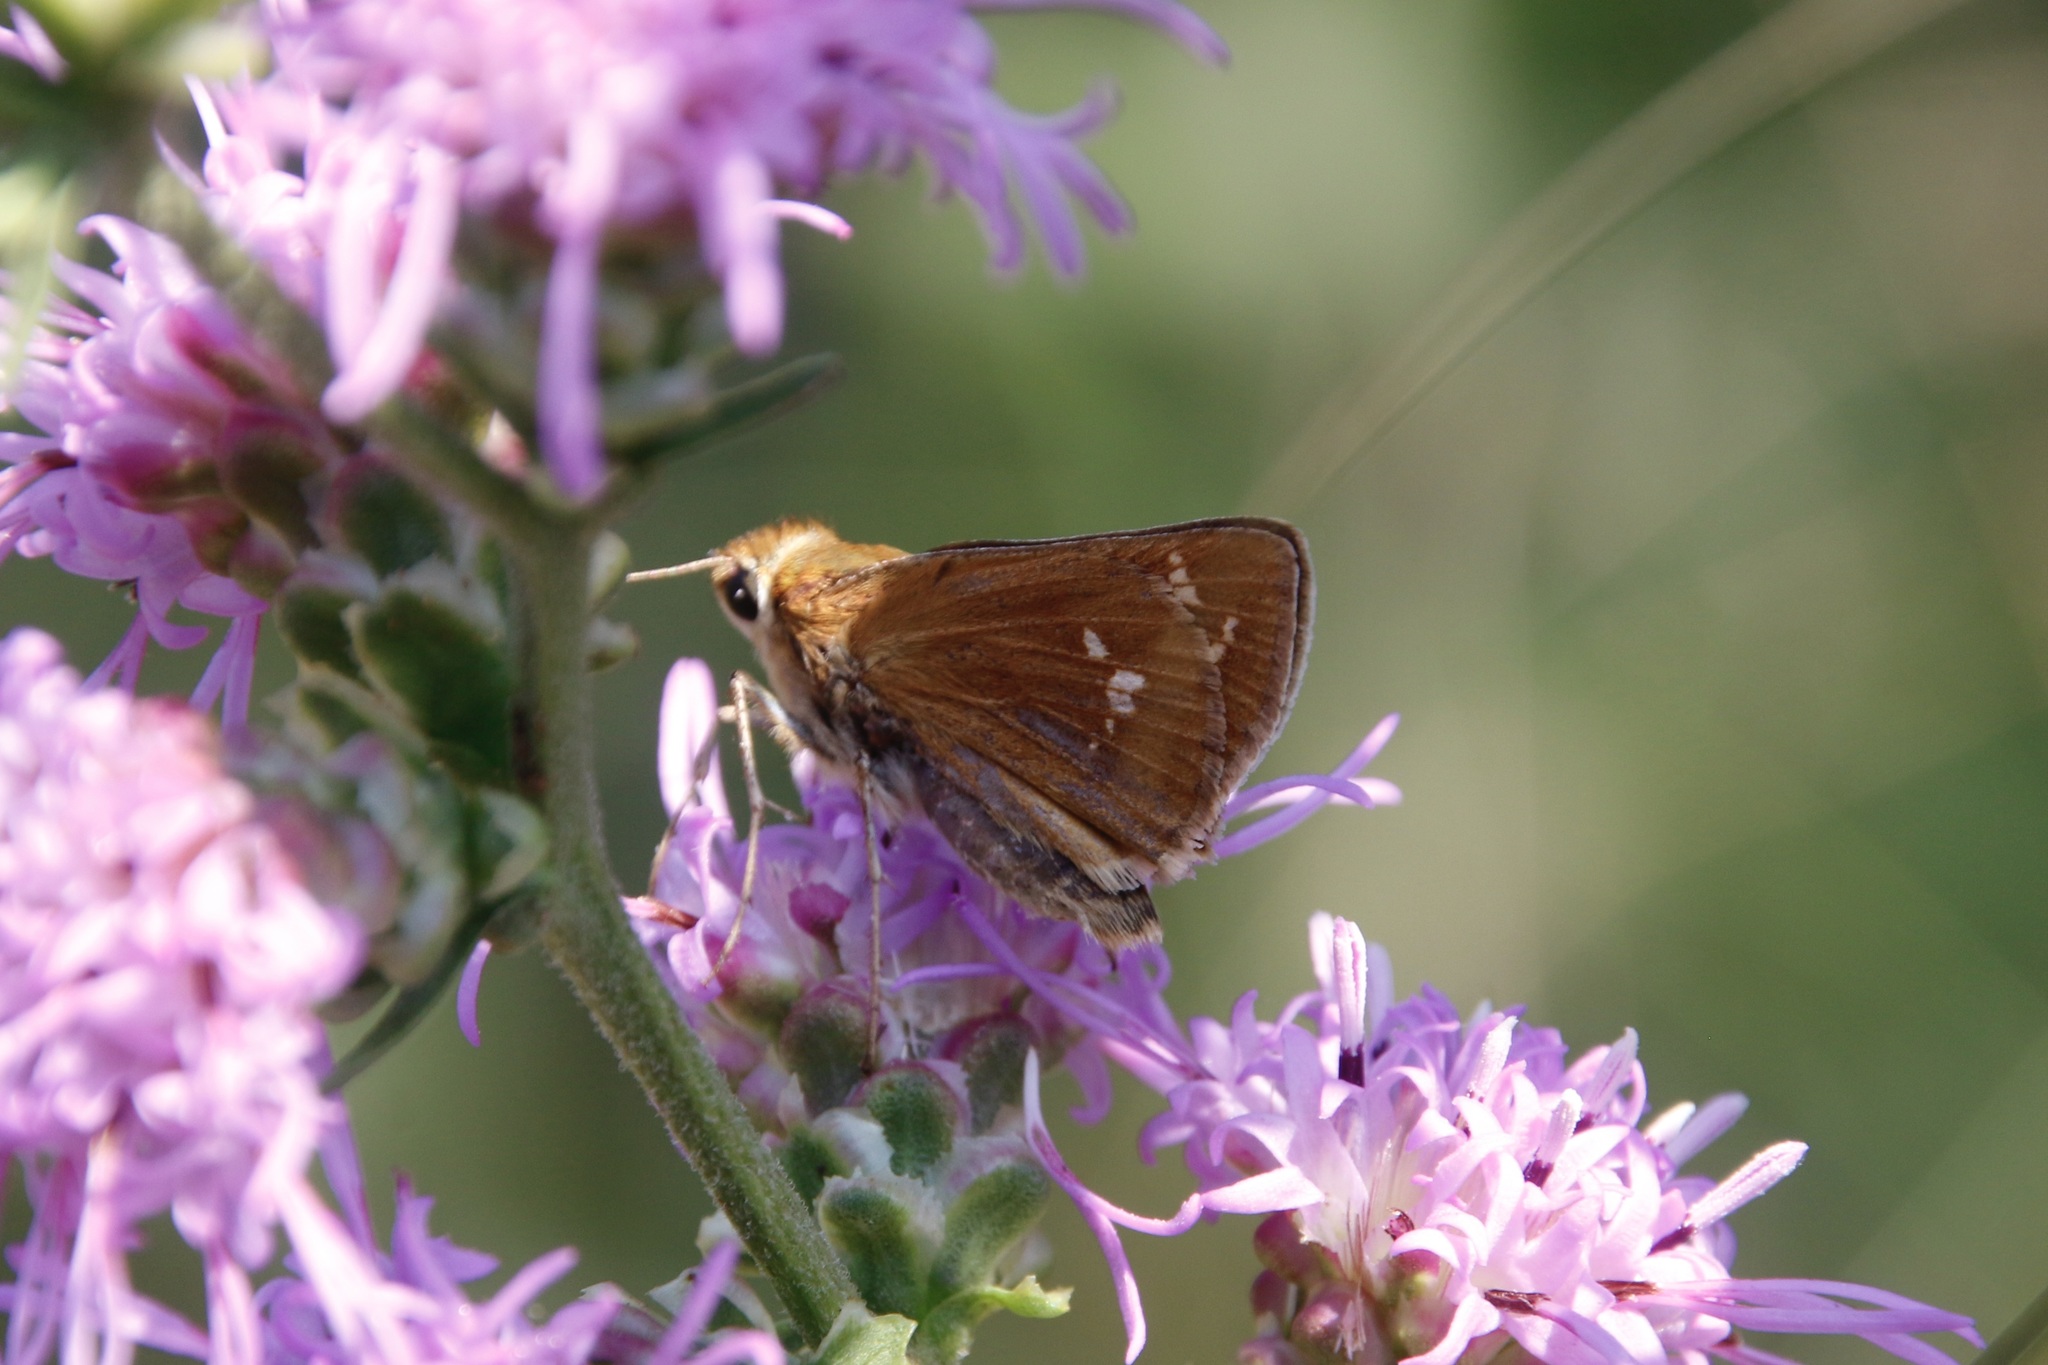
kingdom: Animalia
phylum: Arthropoda
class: Insecta
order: Lepidoptera
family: Hesperiidae
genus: Hesperia
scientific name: Hesperia leonardus
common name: Leonard's skipper
